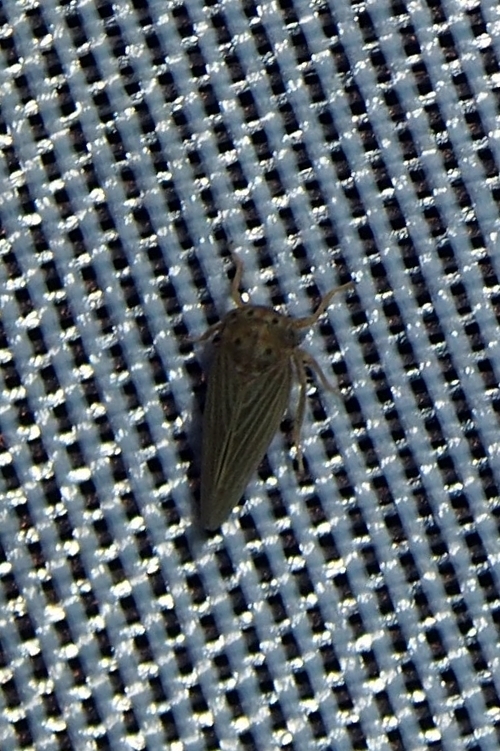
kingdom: Animalia
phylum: Arthropoda
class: Insecta
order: Hemiptera
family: Cicadellidae
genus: Agallia
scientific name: Agallia constricta
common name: The constricted leafhopper
